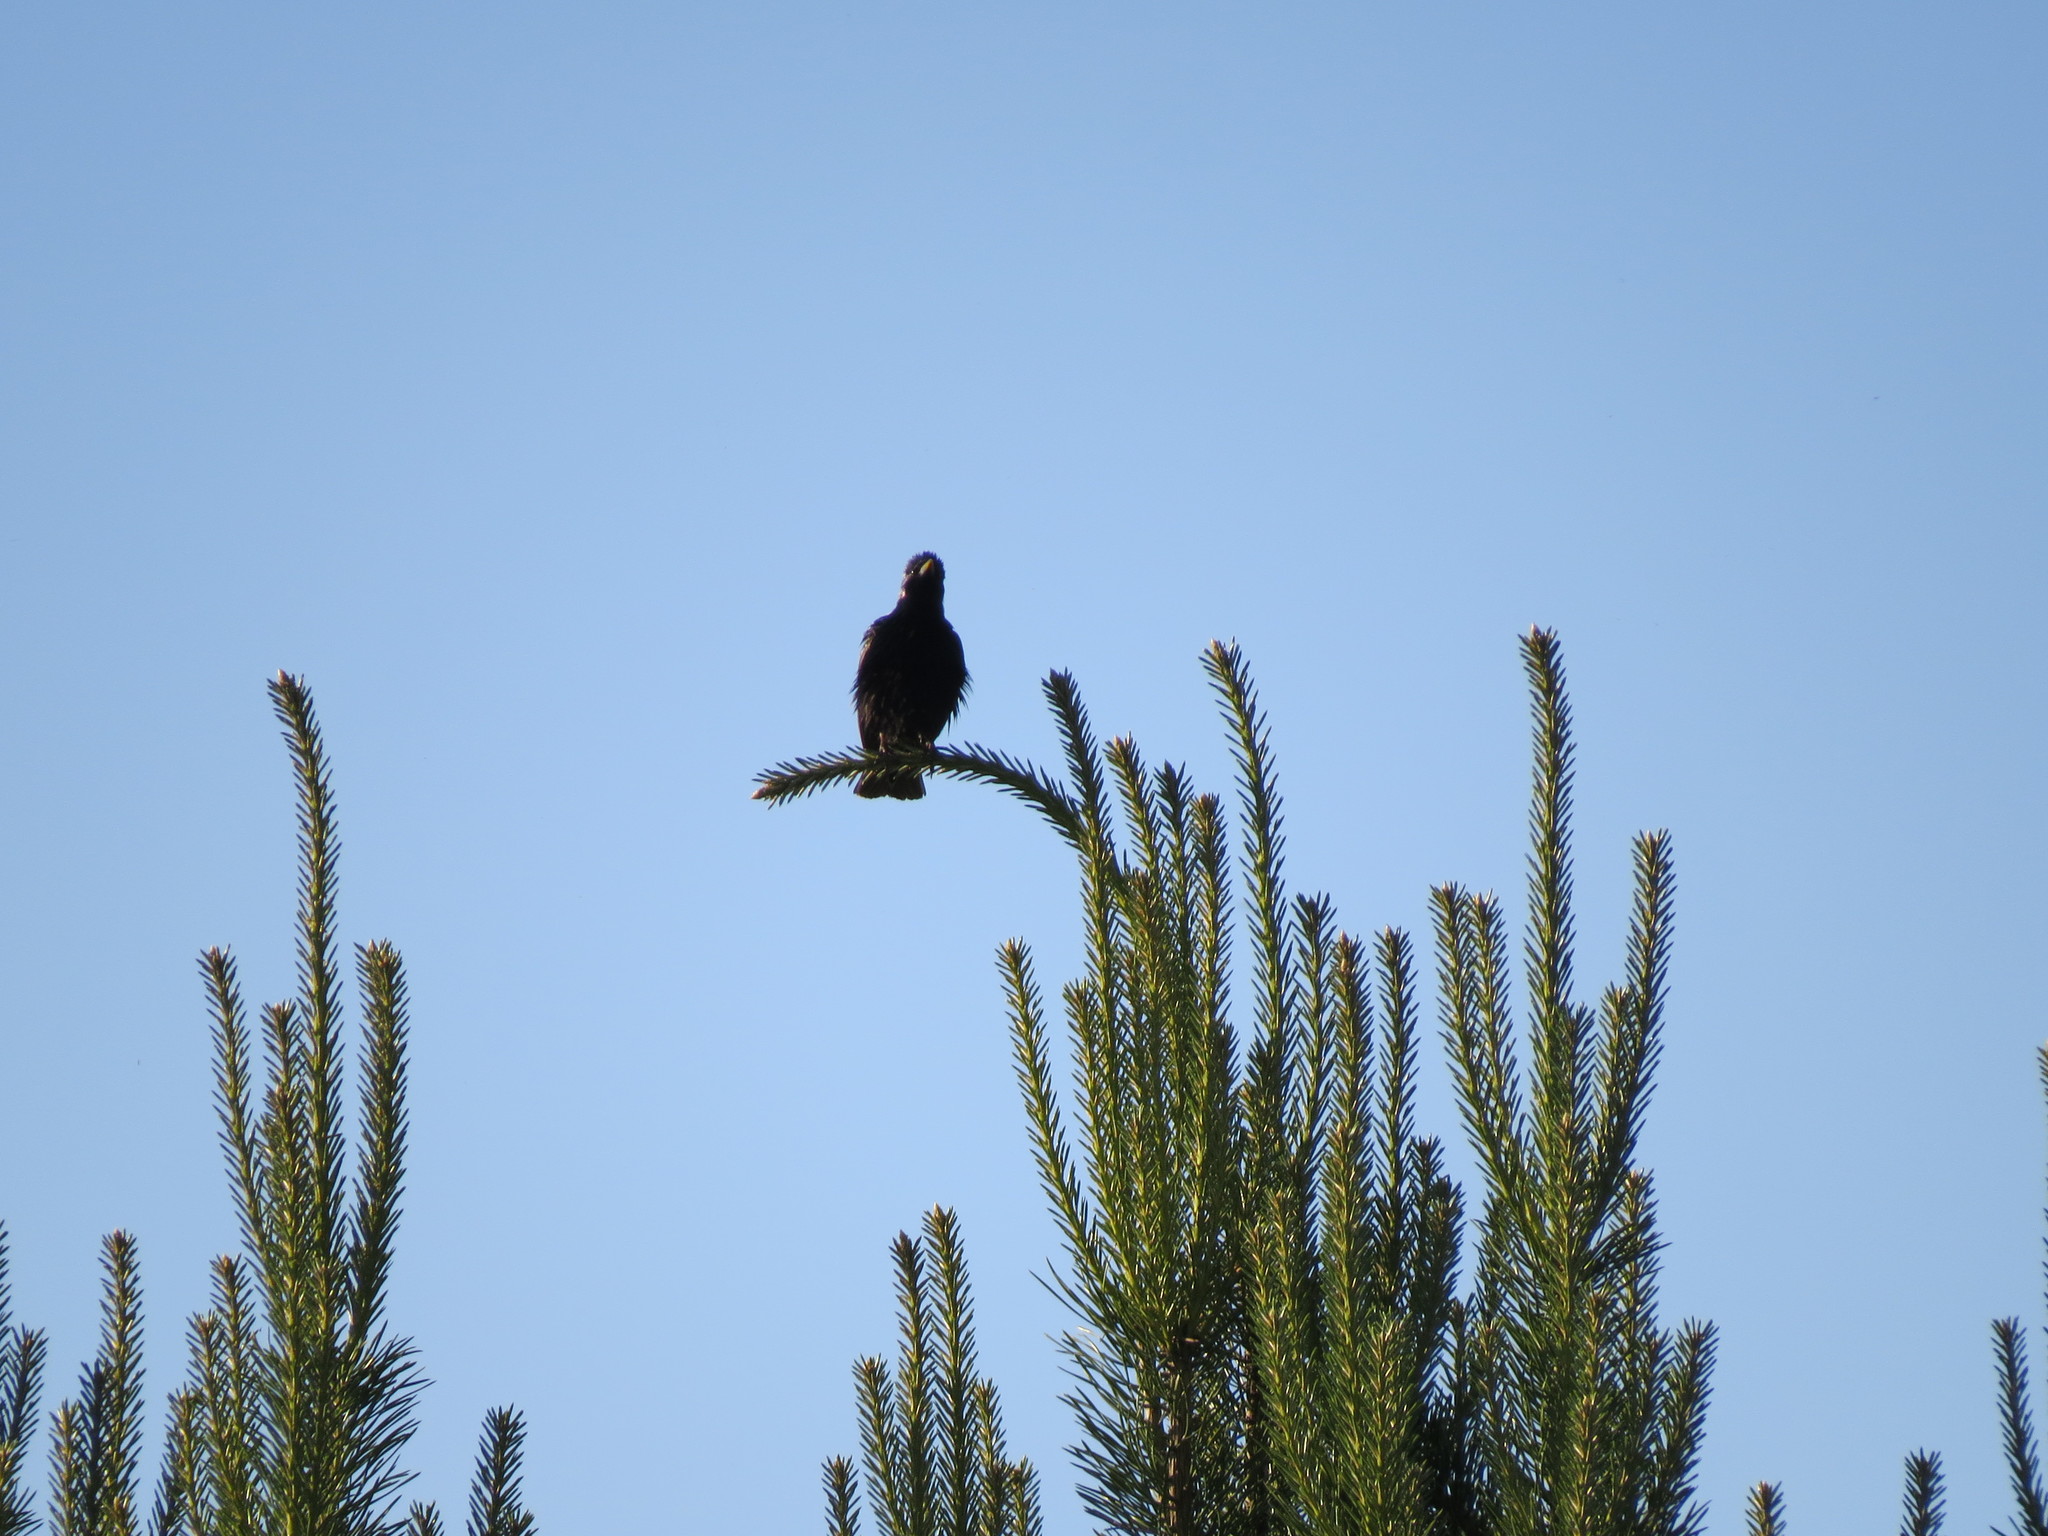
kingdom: Animalia
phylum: Chordata
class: Aves
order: Passeriformes
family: Sturnidae
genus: Sturnus
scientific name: Sturnus vulgaris
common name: Common starling
